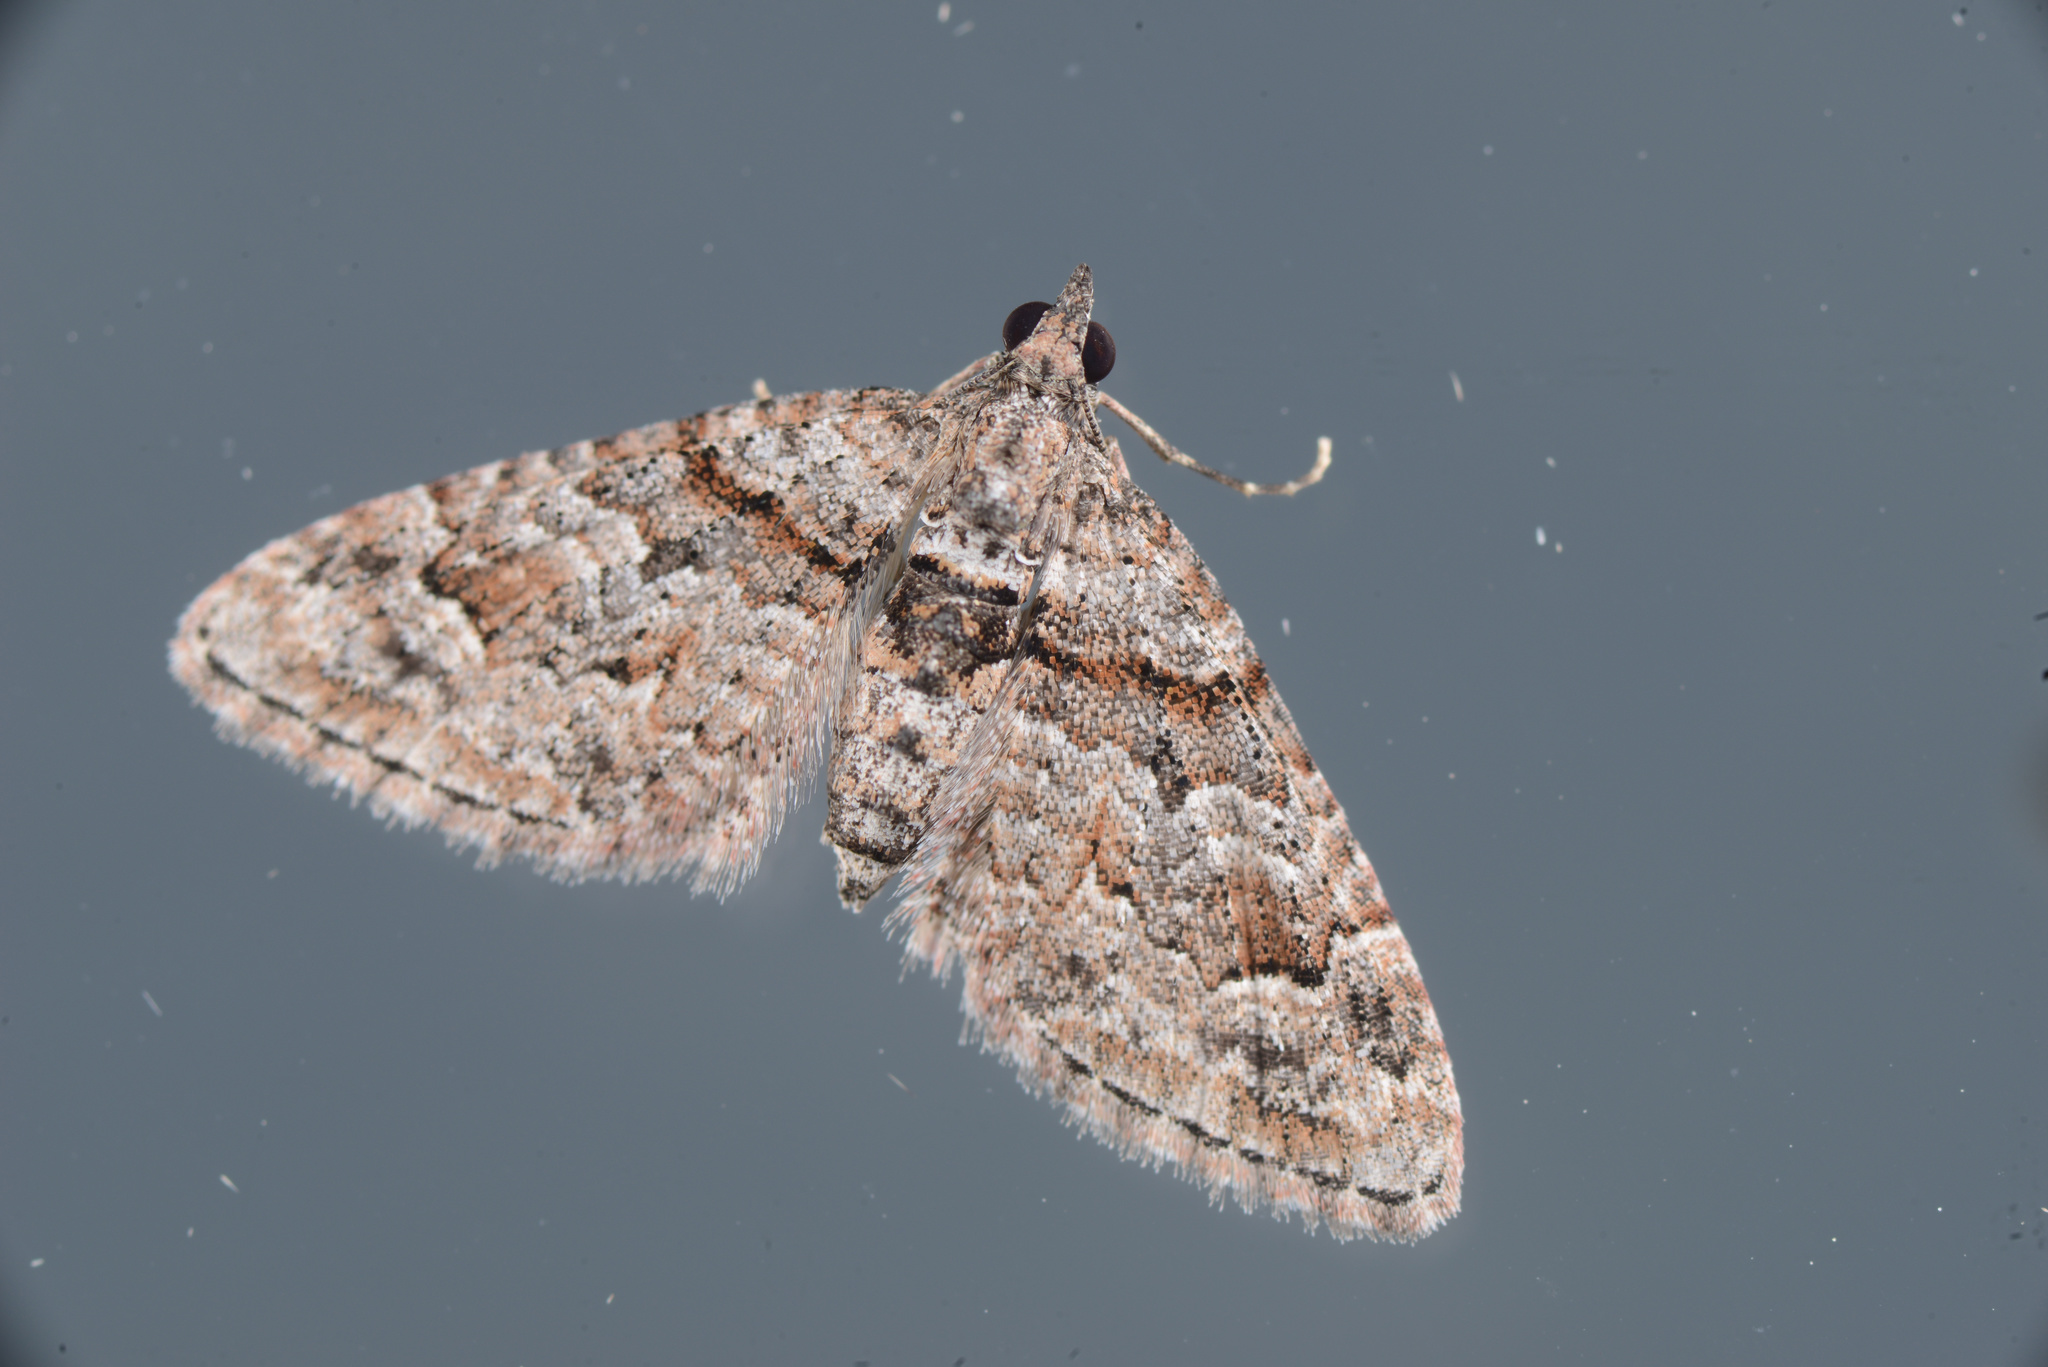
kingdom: Animalia
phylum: Arthropoda
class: Insecta
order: Lepidoptera
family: Geometridae
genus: Phrissogonus
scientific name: Phrissogonus laticostata
